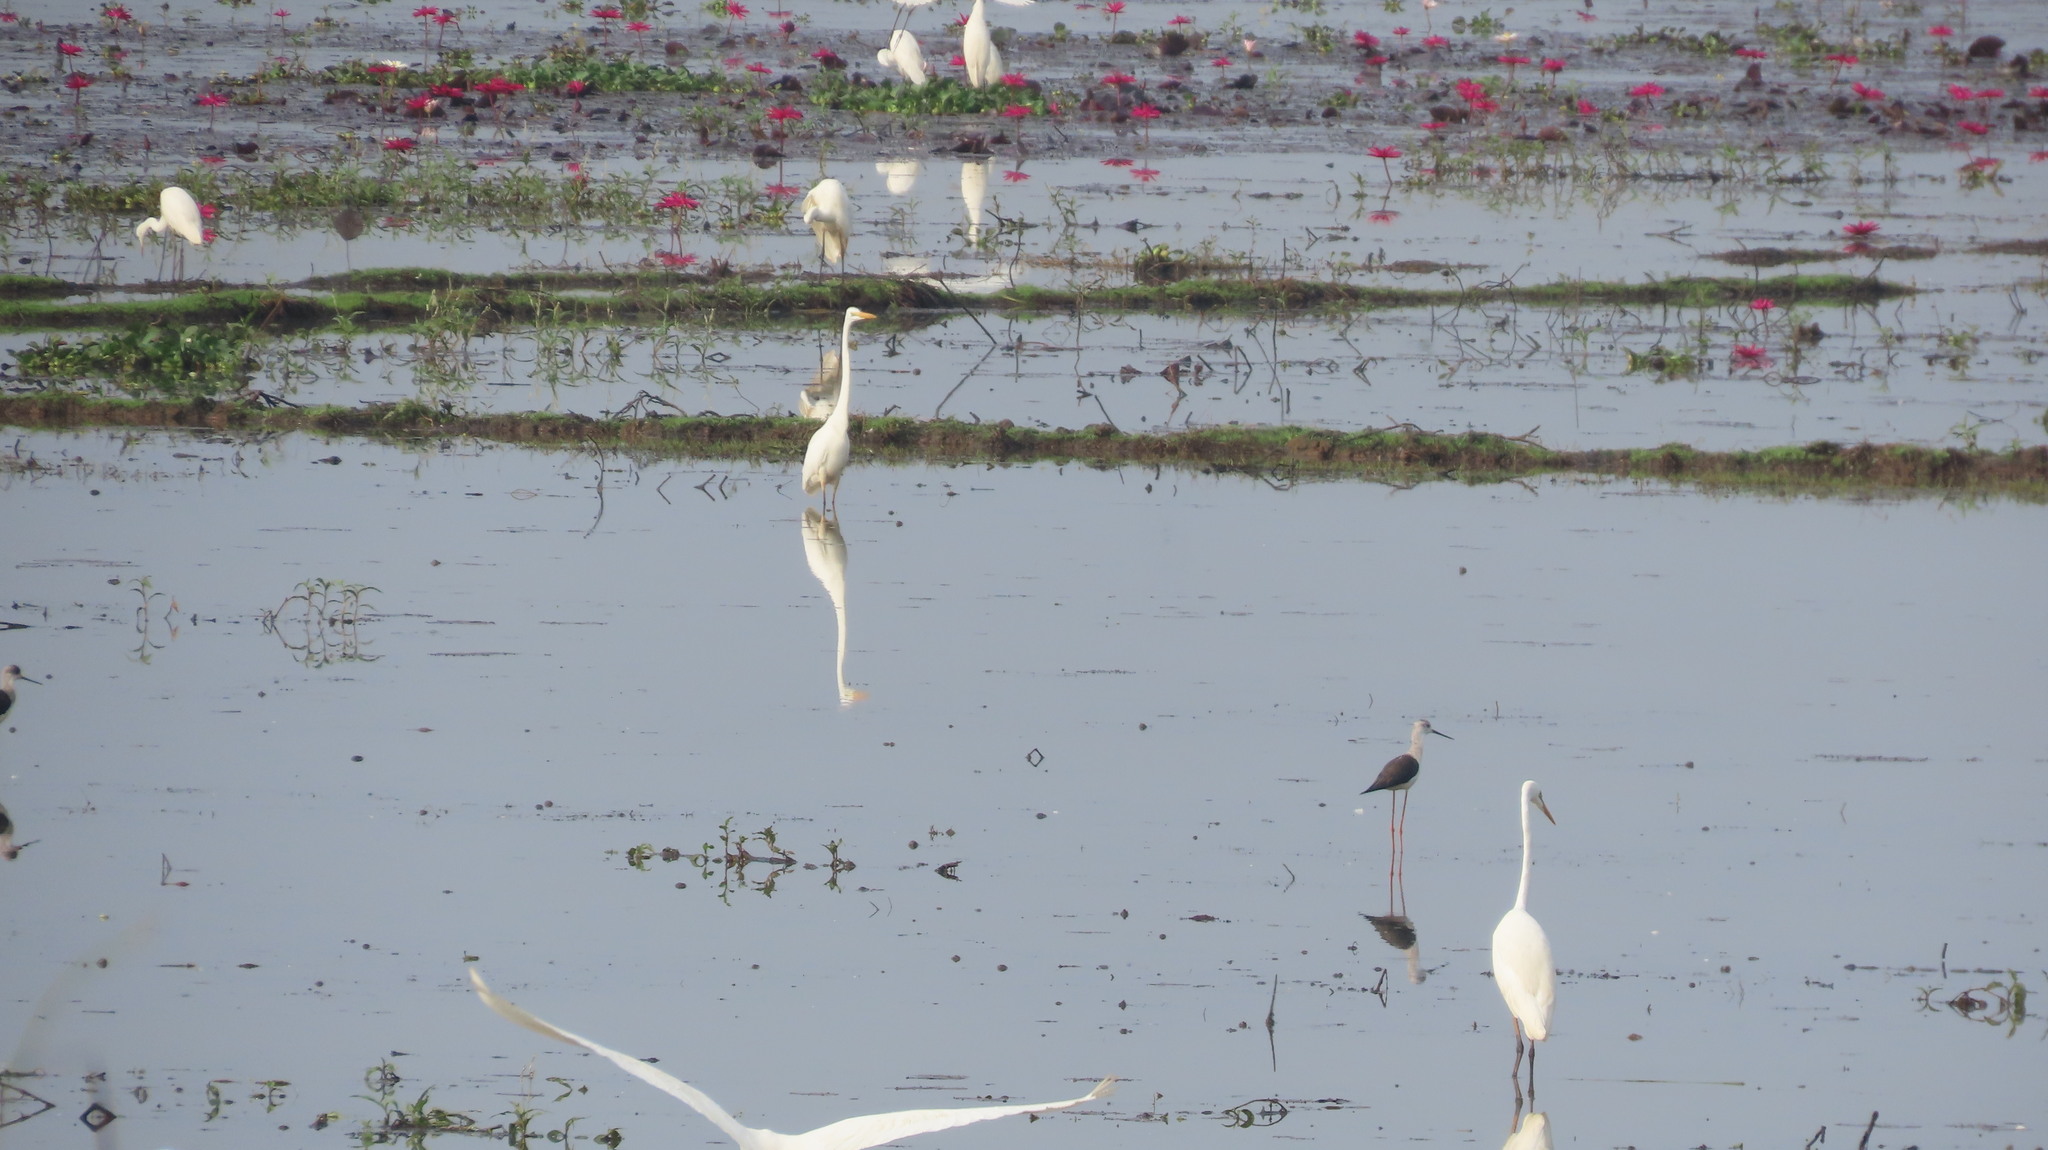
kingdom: Animalia
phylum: Chordata
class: Aves
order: Charadriiformes
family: Recurvirostridae
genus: Himantopus
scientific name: Himantopus himantopus
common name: Black-winged stilt
